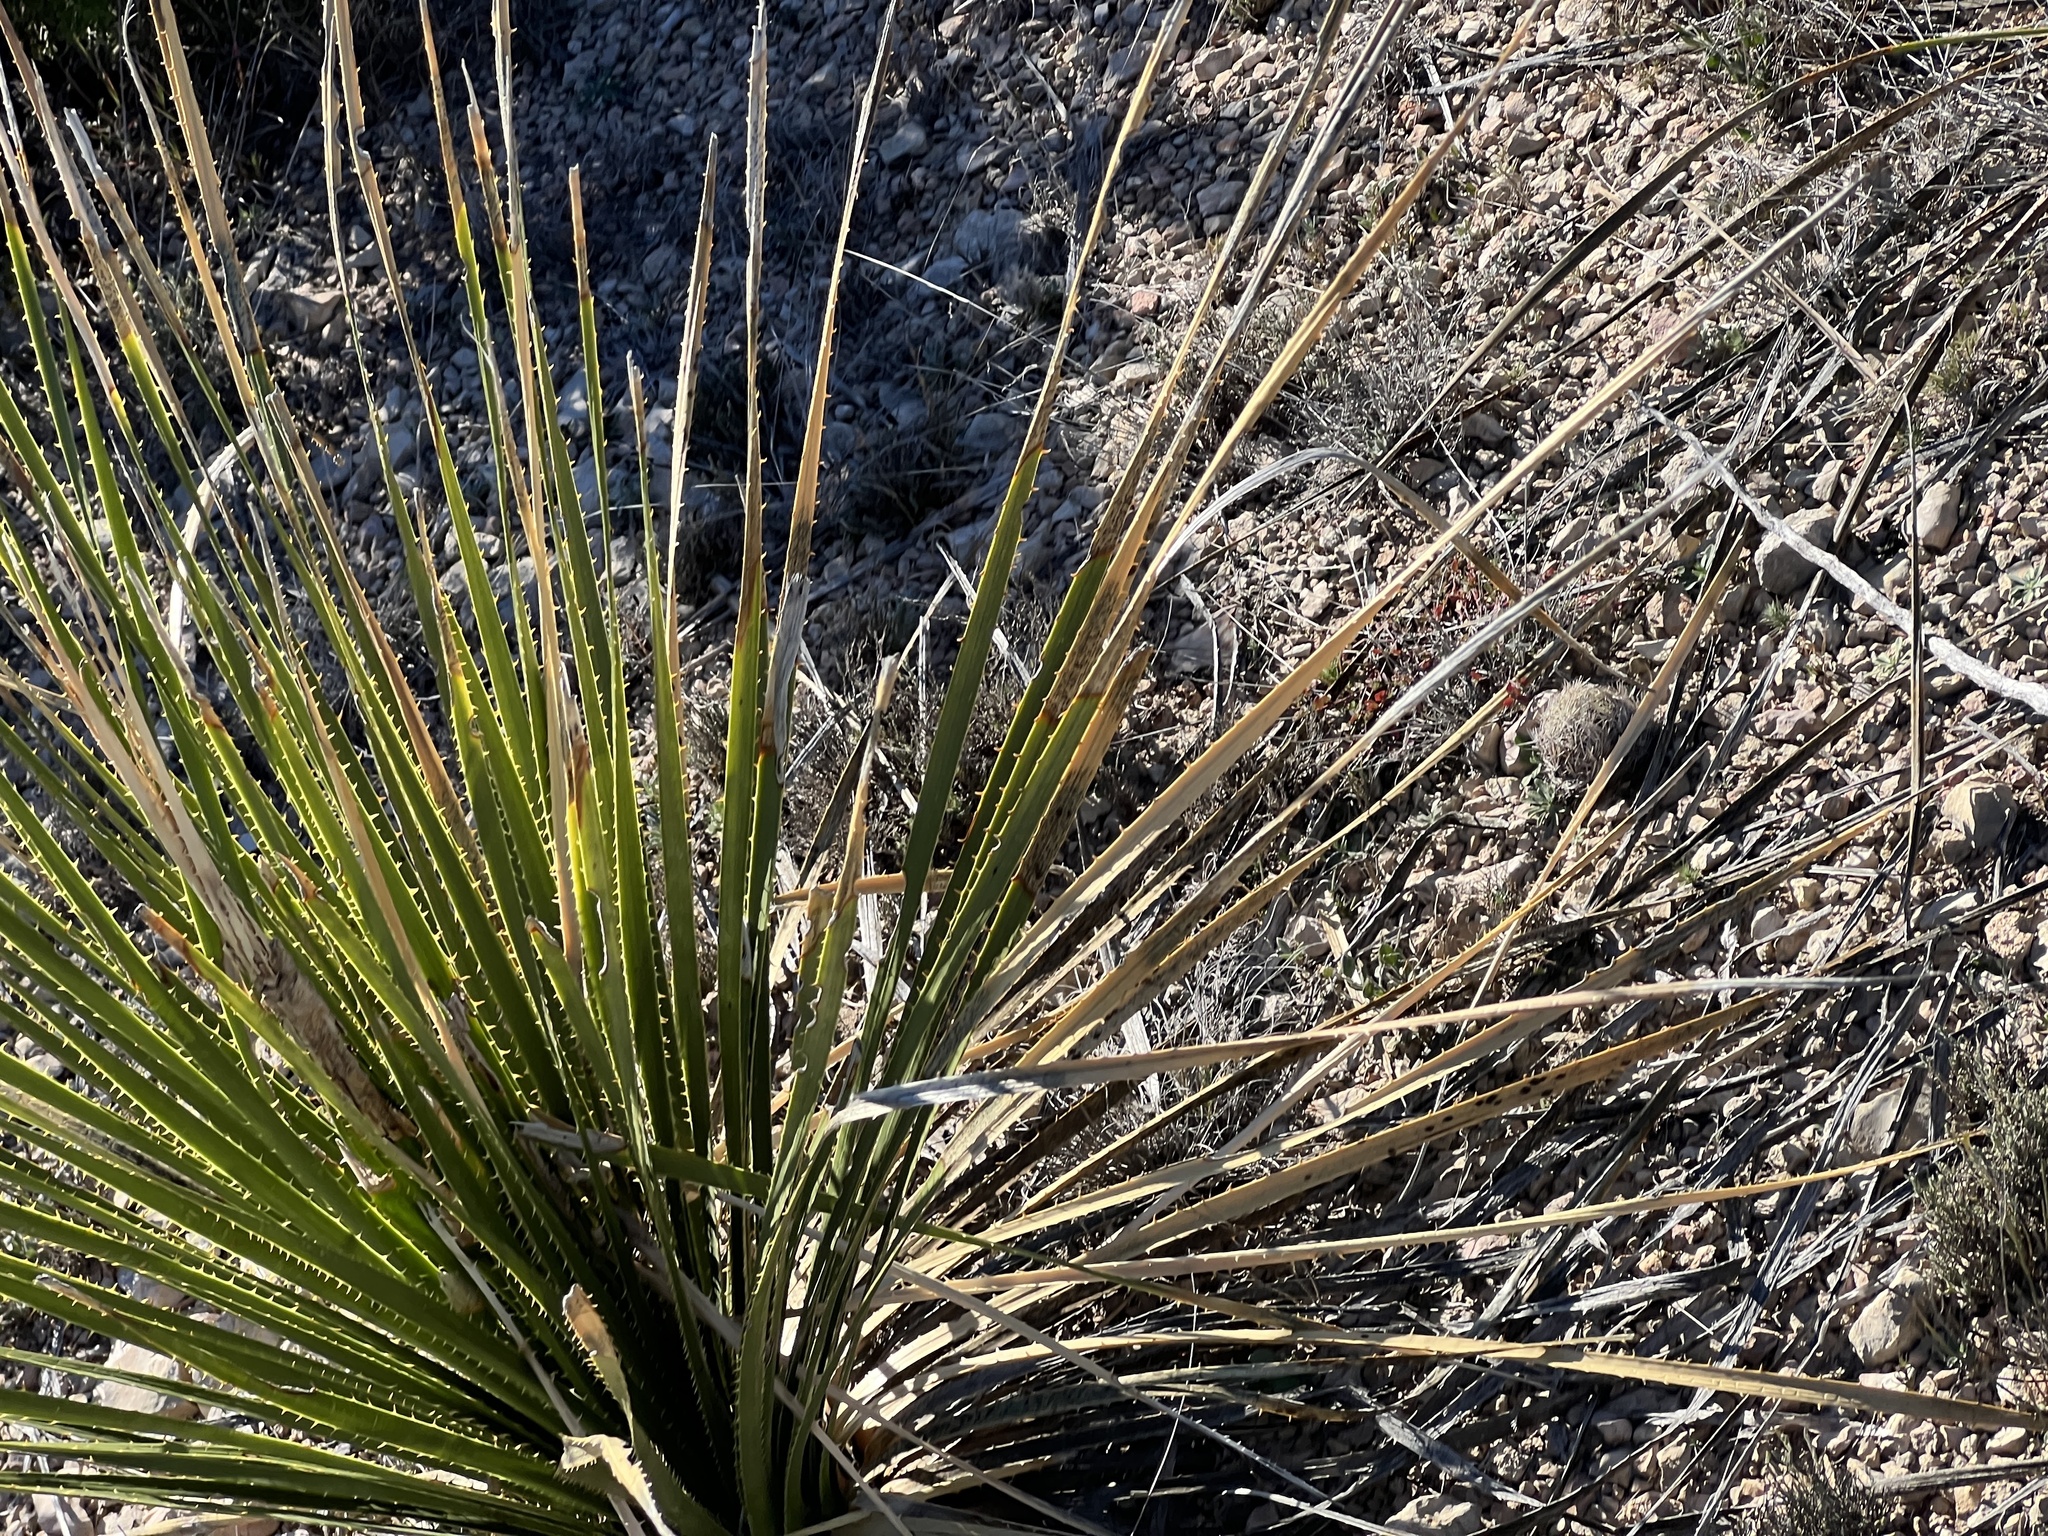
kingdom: Plantae
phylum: Tracheophyta
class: Liliopsida
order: Asparagales
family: Asparagaceae
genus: Dasylirion
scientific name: Dasylirion texanum
